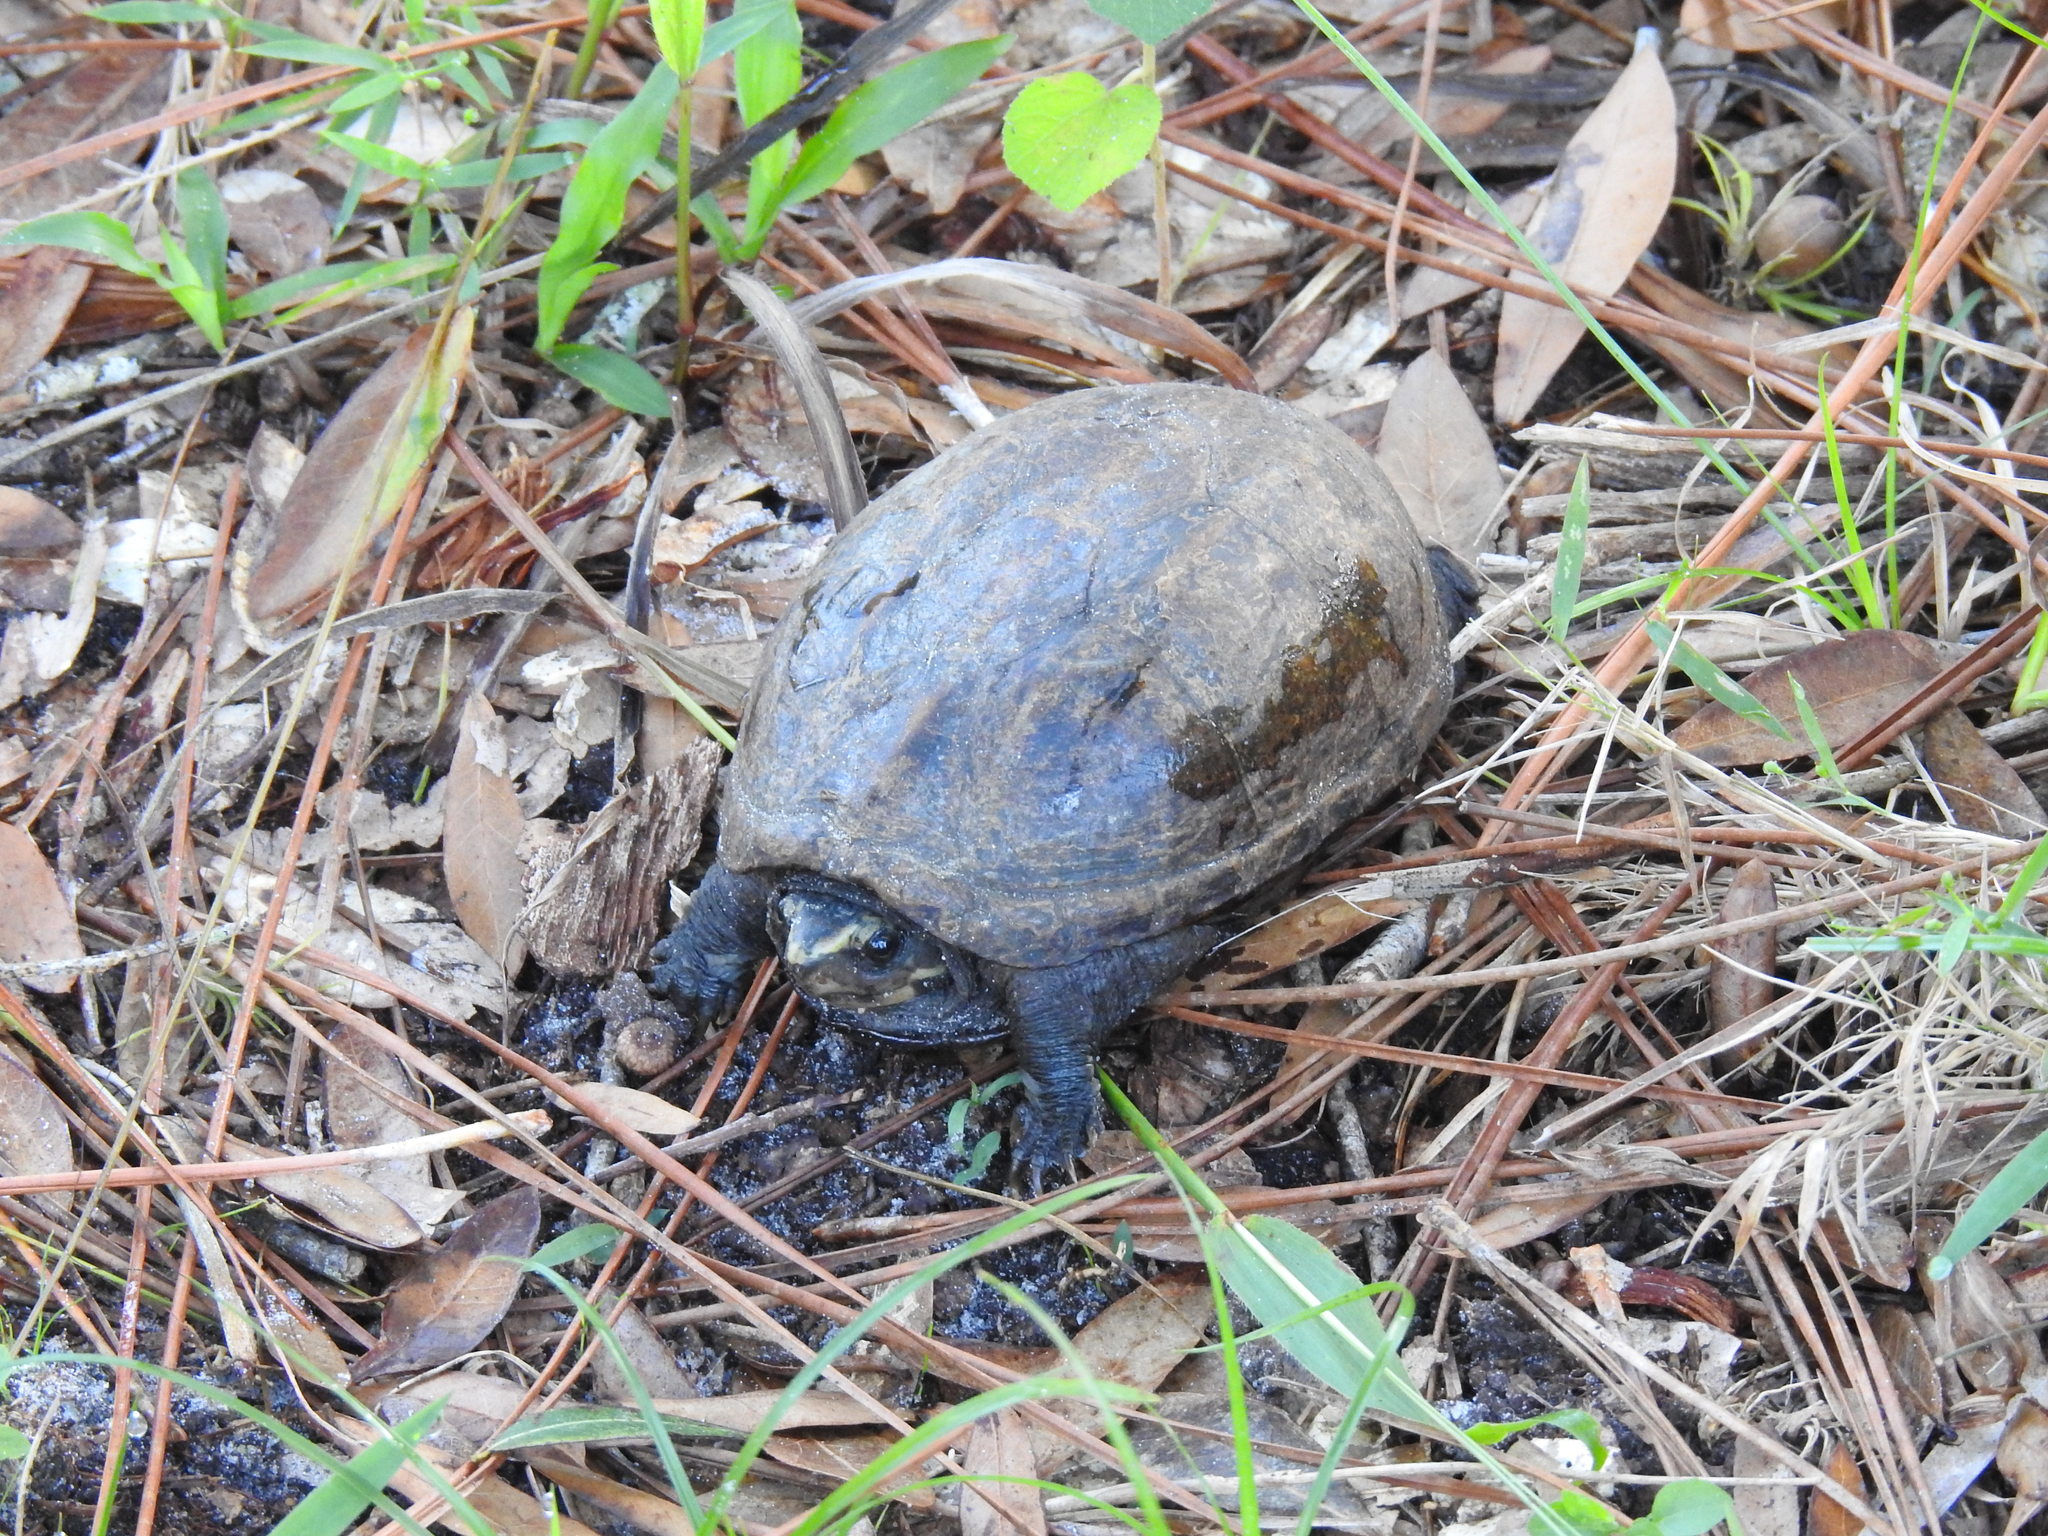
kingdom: Animalia
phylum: Chordata
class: Testudines
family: Kinosternidae
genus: Kinosternon
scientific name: Kinosternon baurii
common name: Striped mud turtle
